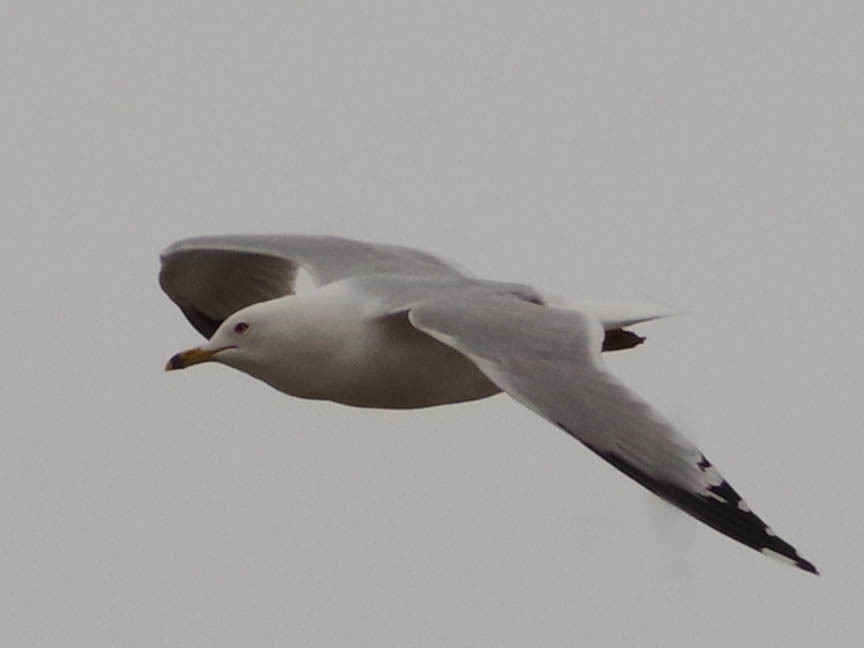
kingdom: Animalia
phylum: Chordata
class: Aves
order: Charadriiformes
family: Laridae
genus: Larus
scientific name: Larus delawarensis
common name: Ring-billed gull
